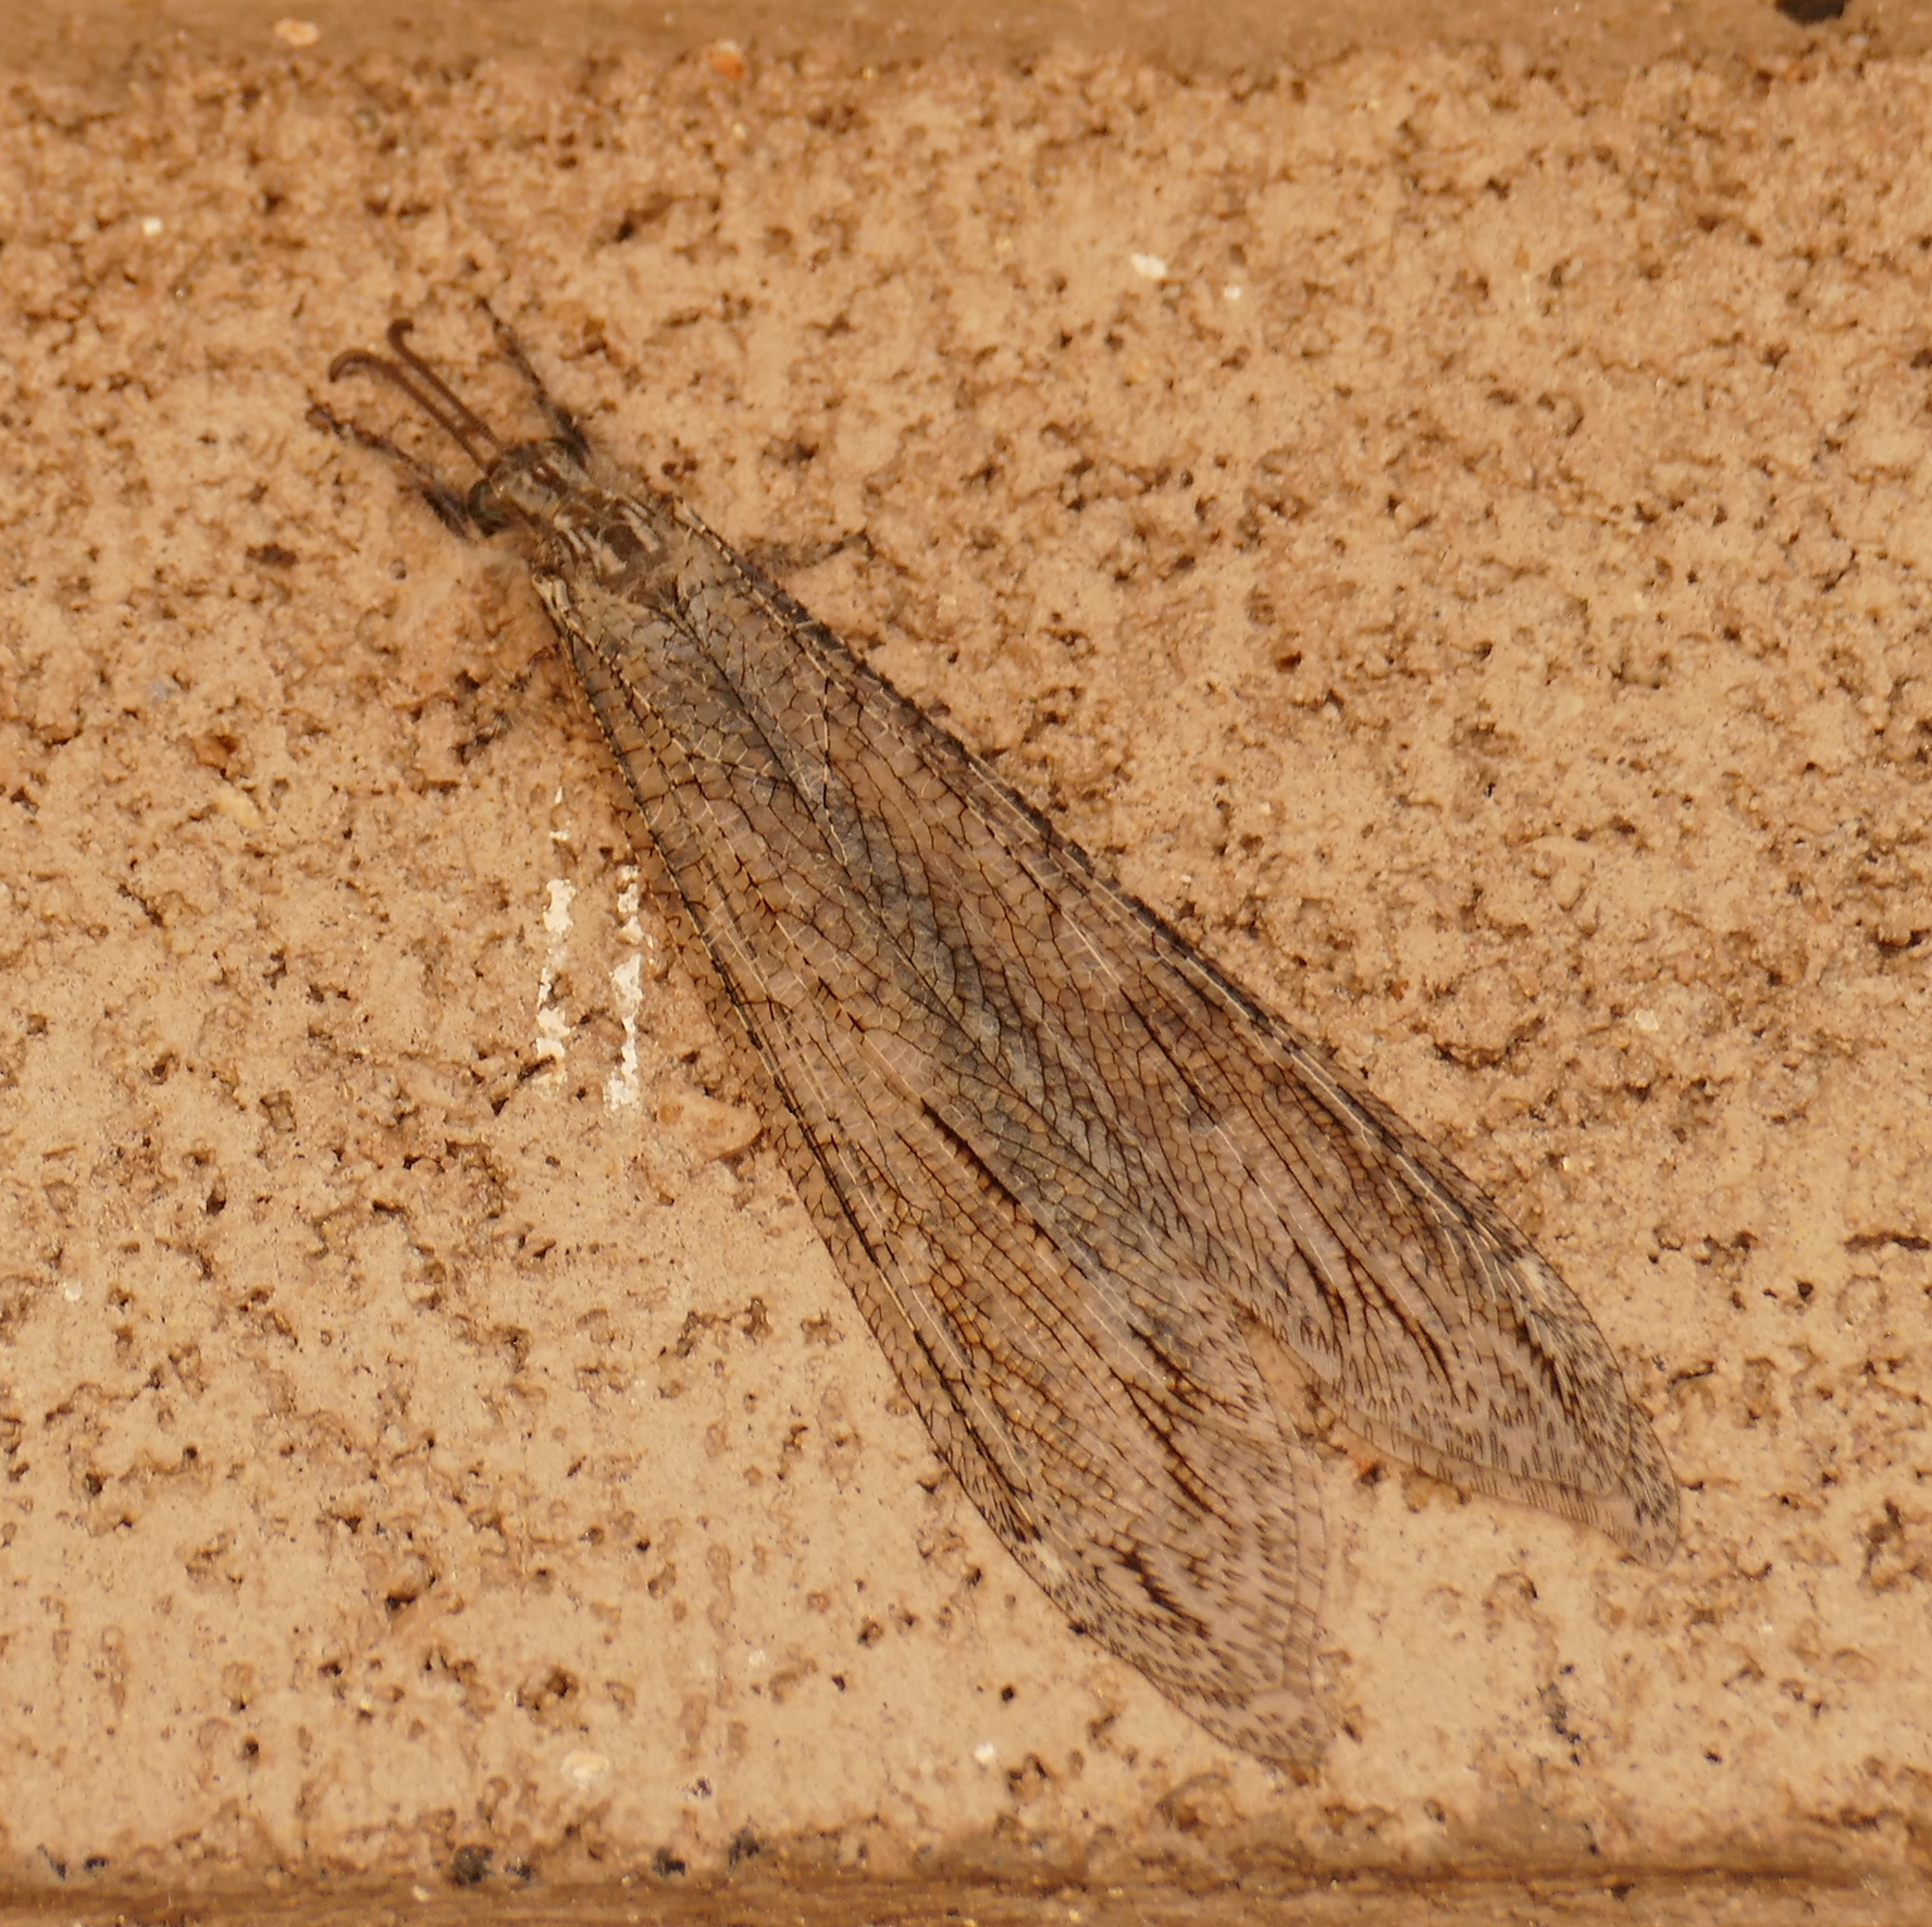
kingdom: Animalia
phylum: Arthropoda
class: Insecta
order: Neuroptera
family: Myrmeleontidae
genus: Vella
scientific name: Vella fallax
